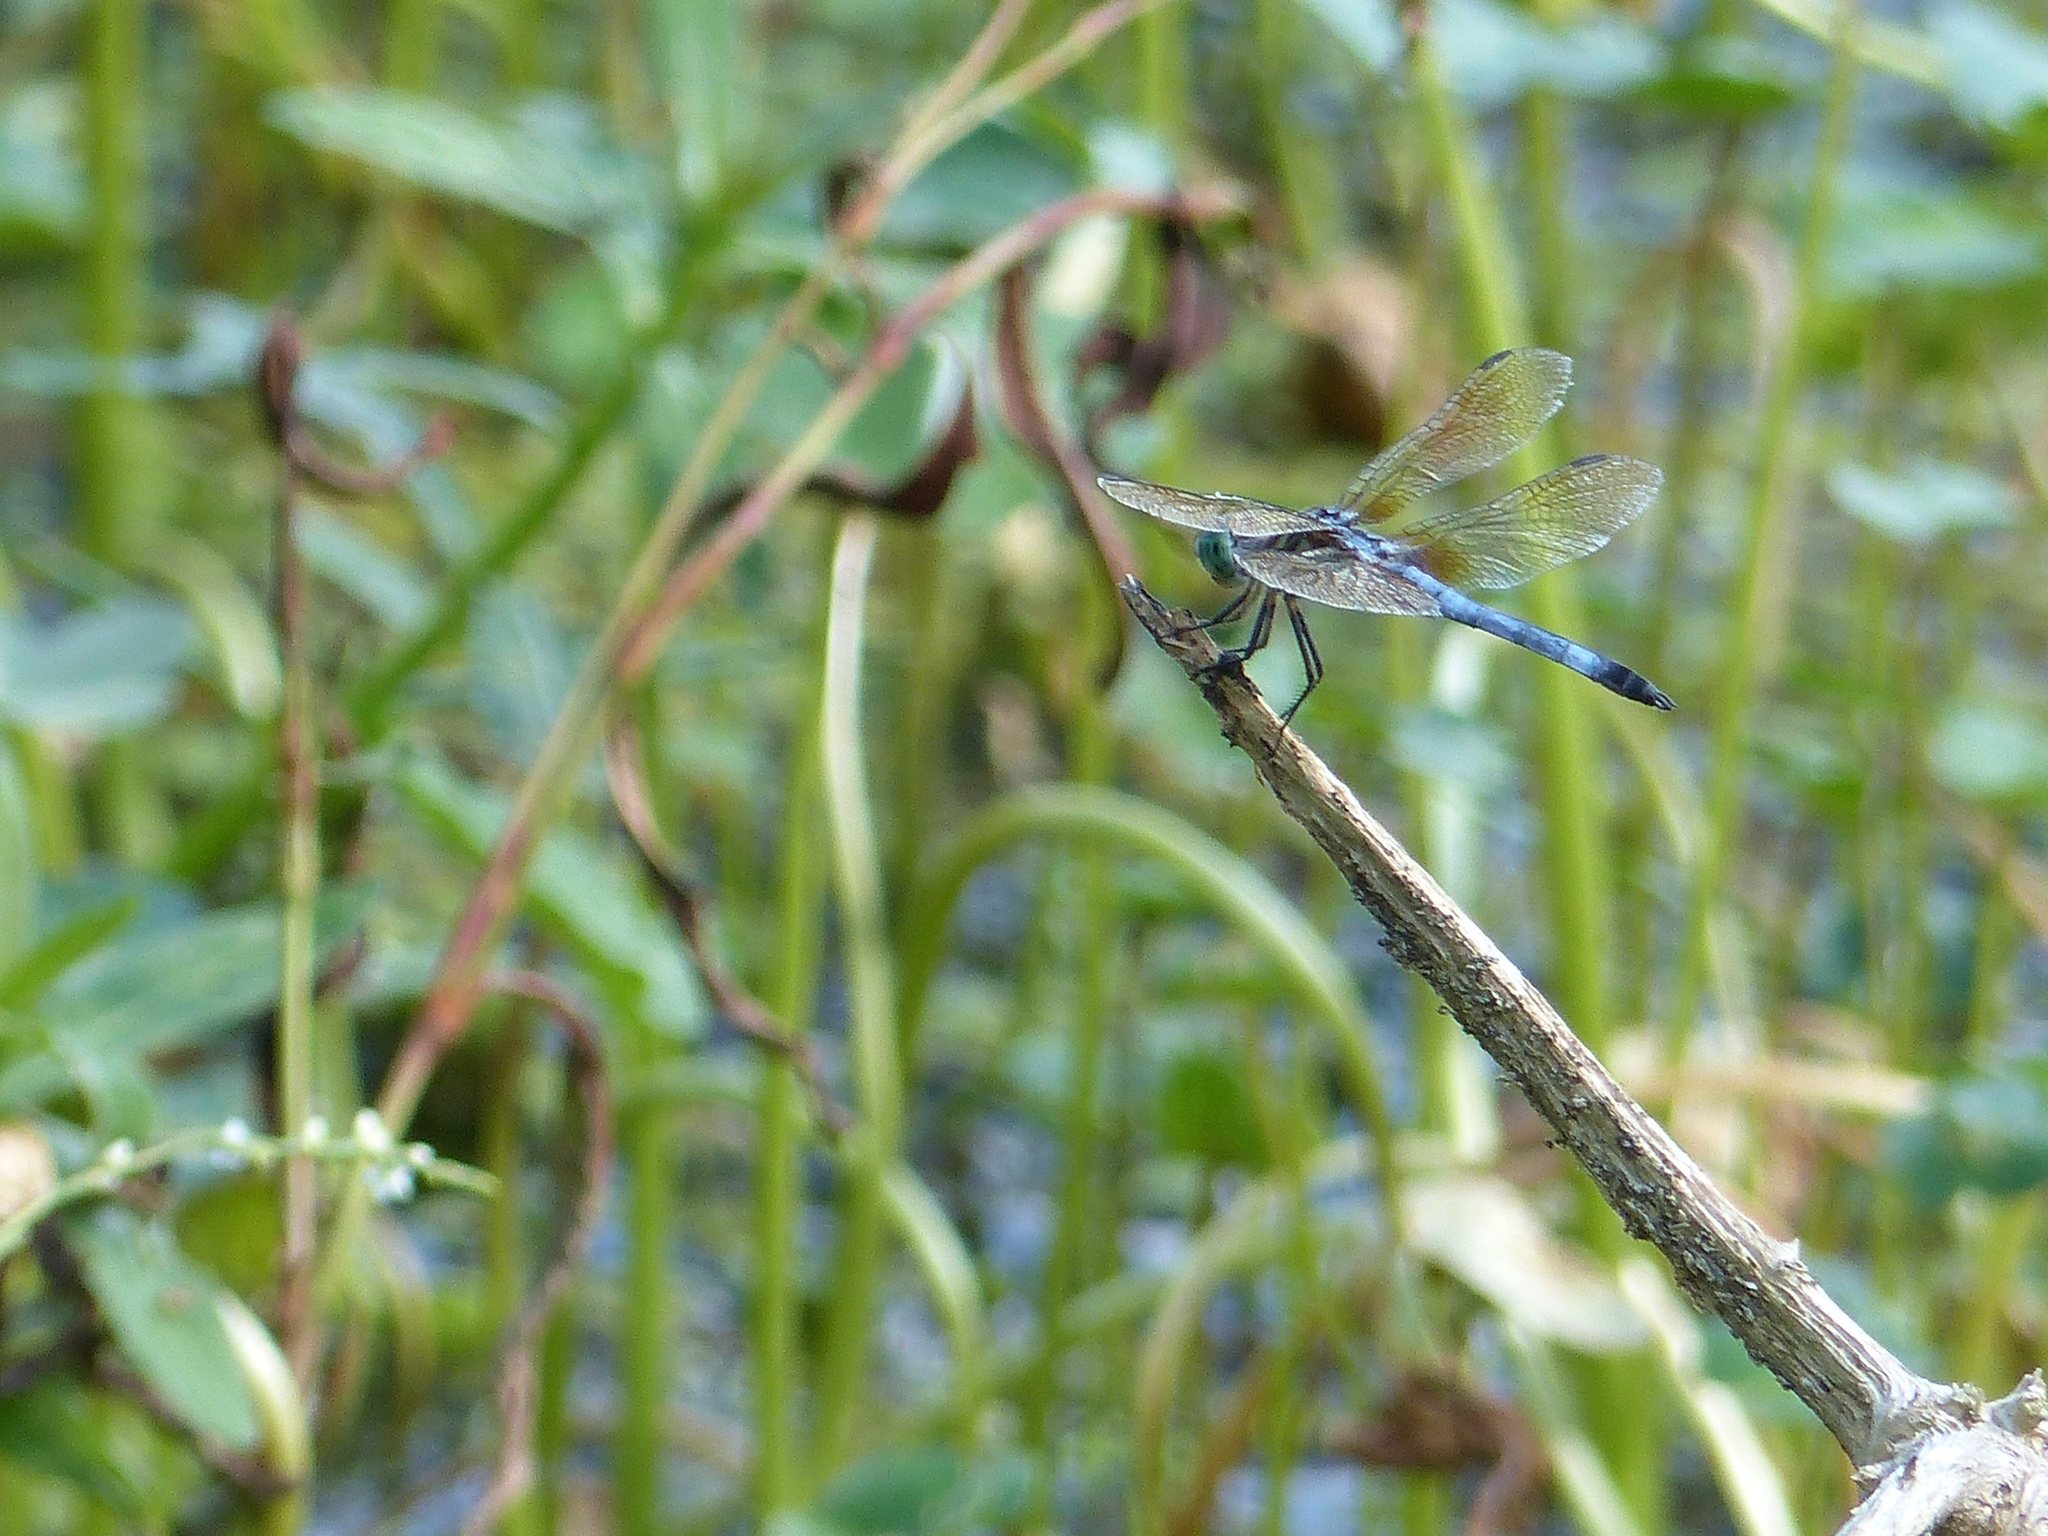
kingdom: Animalia
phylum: Arthropoda
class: Insecta
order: Odonata
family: Libellulidae
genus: Pachydiplax
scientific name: Pachydiplax longipennis
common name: Blue dasher
